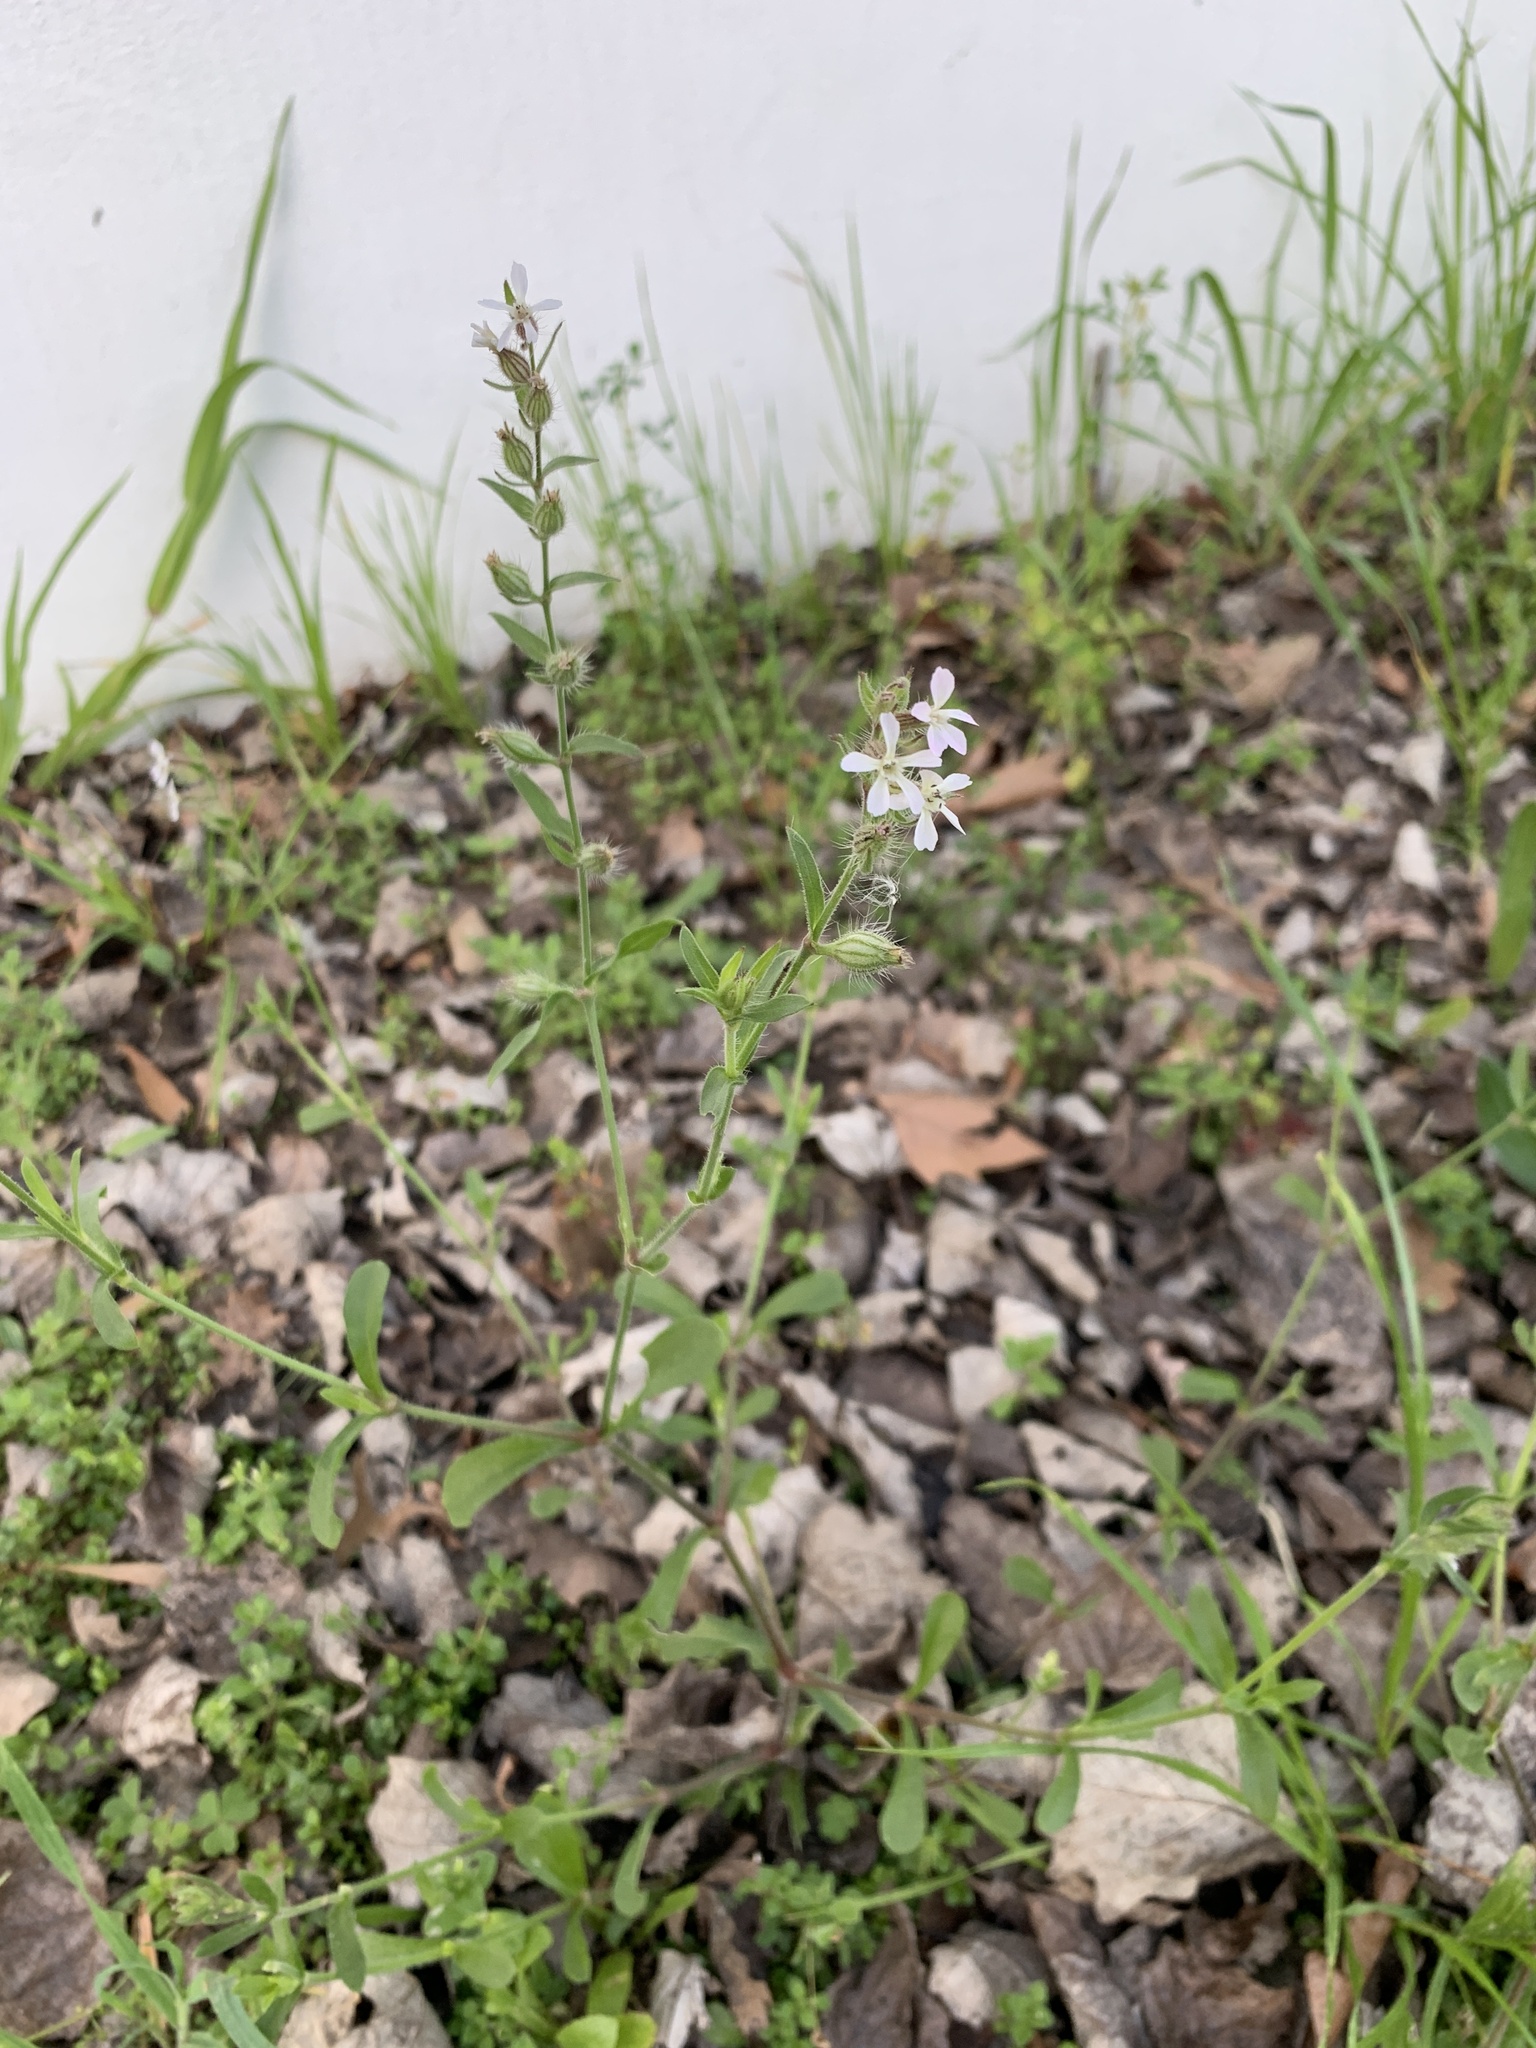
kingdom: Plantae
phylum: Tracheophyta
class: Magnoliopsida
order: Caryophyllales
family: Caryophyllaceae
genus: Silene
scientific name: Silene gallica
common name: Small-flowered catchfly
